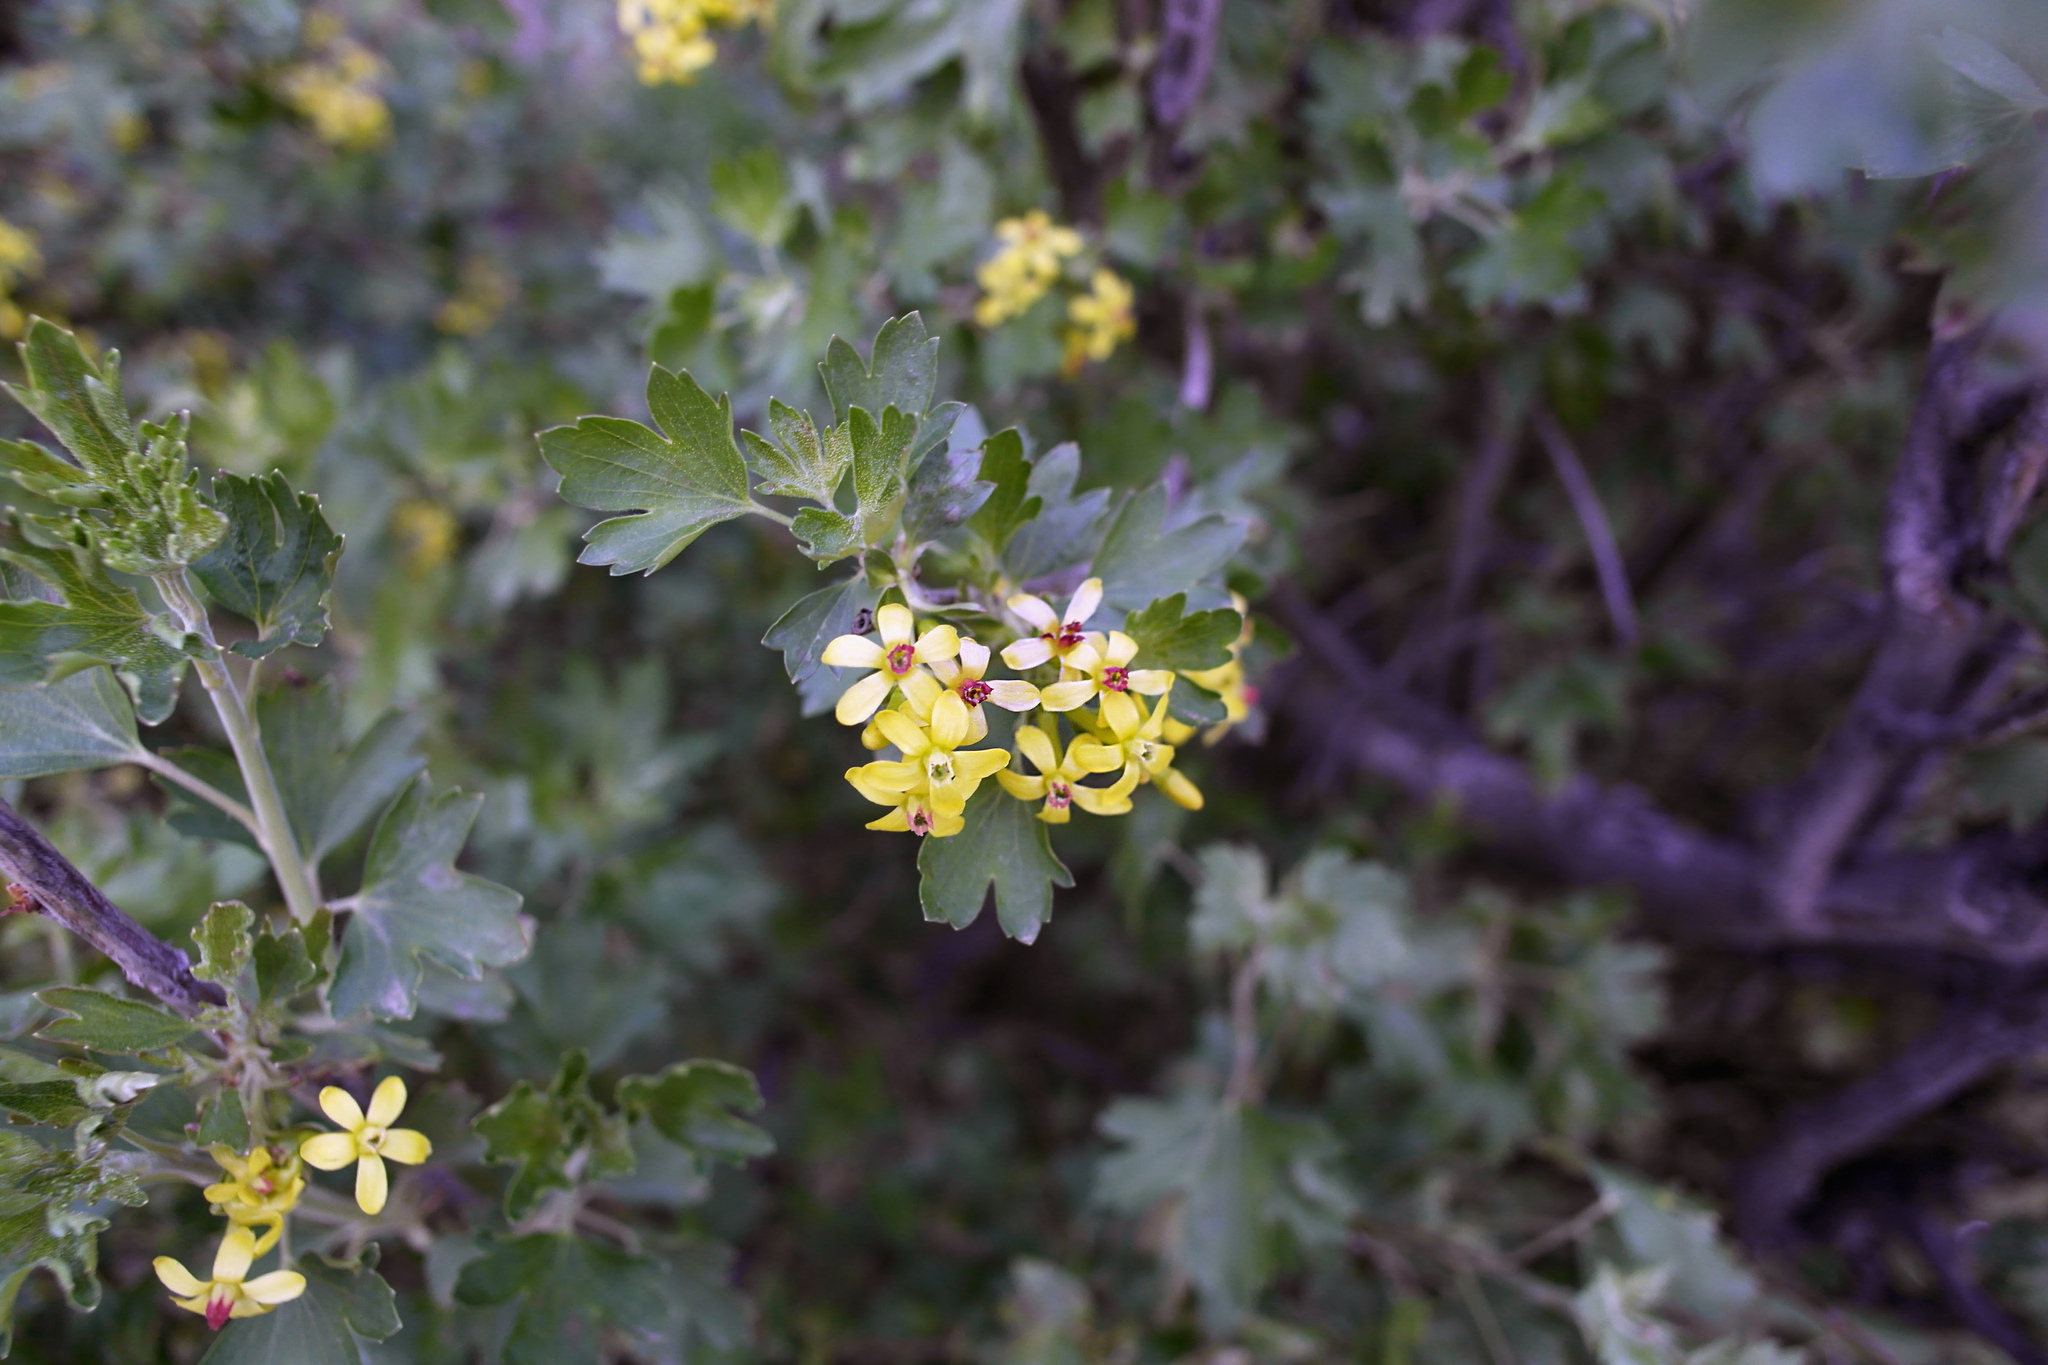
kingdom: Plantae
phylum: Tracheophyta
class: Magnoliopsida
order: Saxifragales
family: Grossulariaceae
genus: Ribes
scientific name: Ribes aureum
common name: Golden currant
